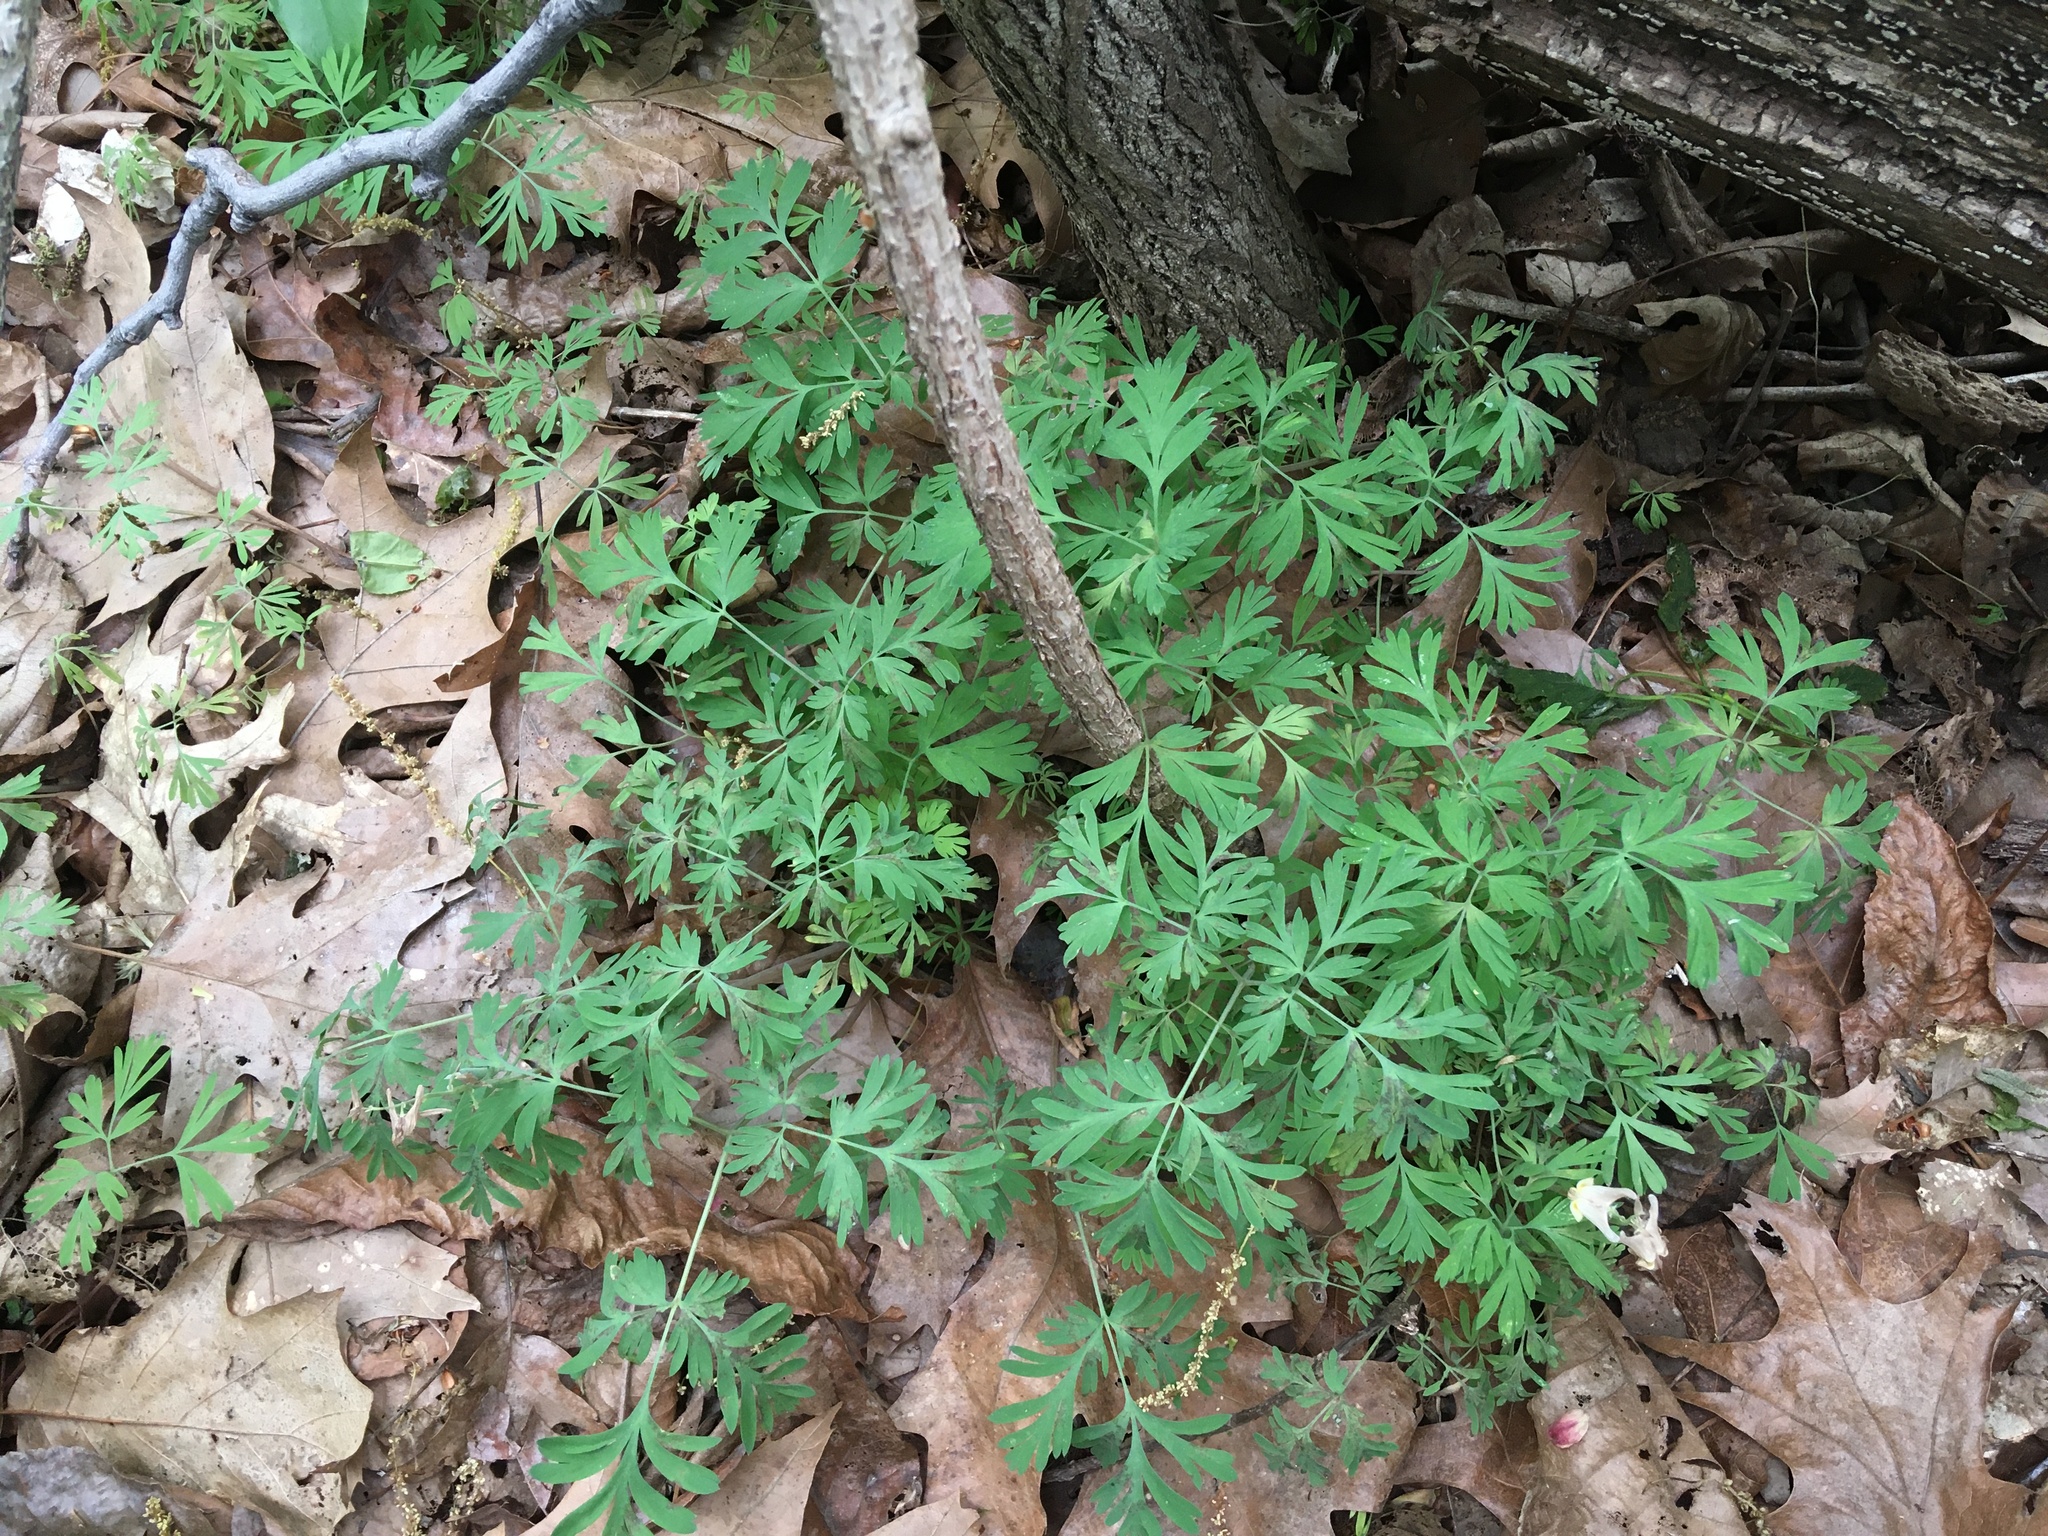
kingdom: Plantae
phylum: Tracheophyta
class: Magnoliopsida
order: Ranunculales
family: Papaveraceae
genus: Dicentra
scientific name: Dicentra cucullaria
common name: Dutchman's breeches
